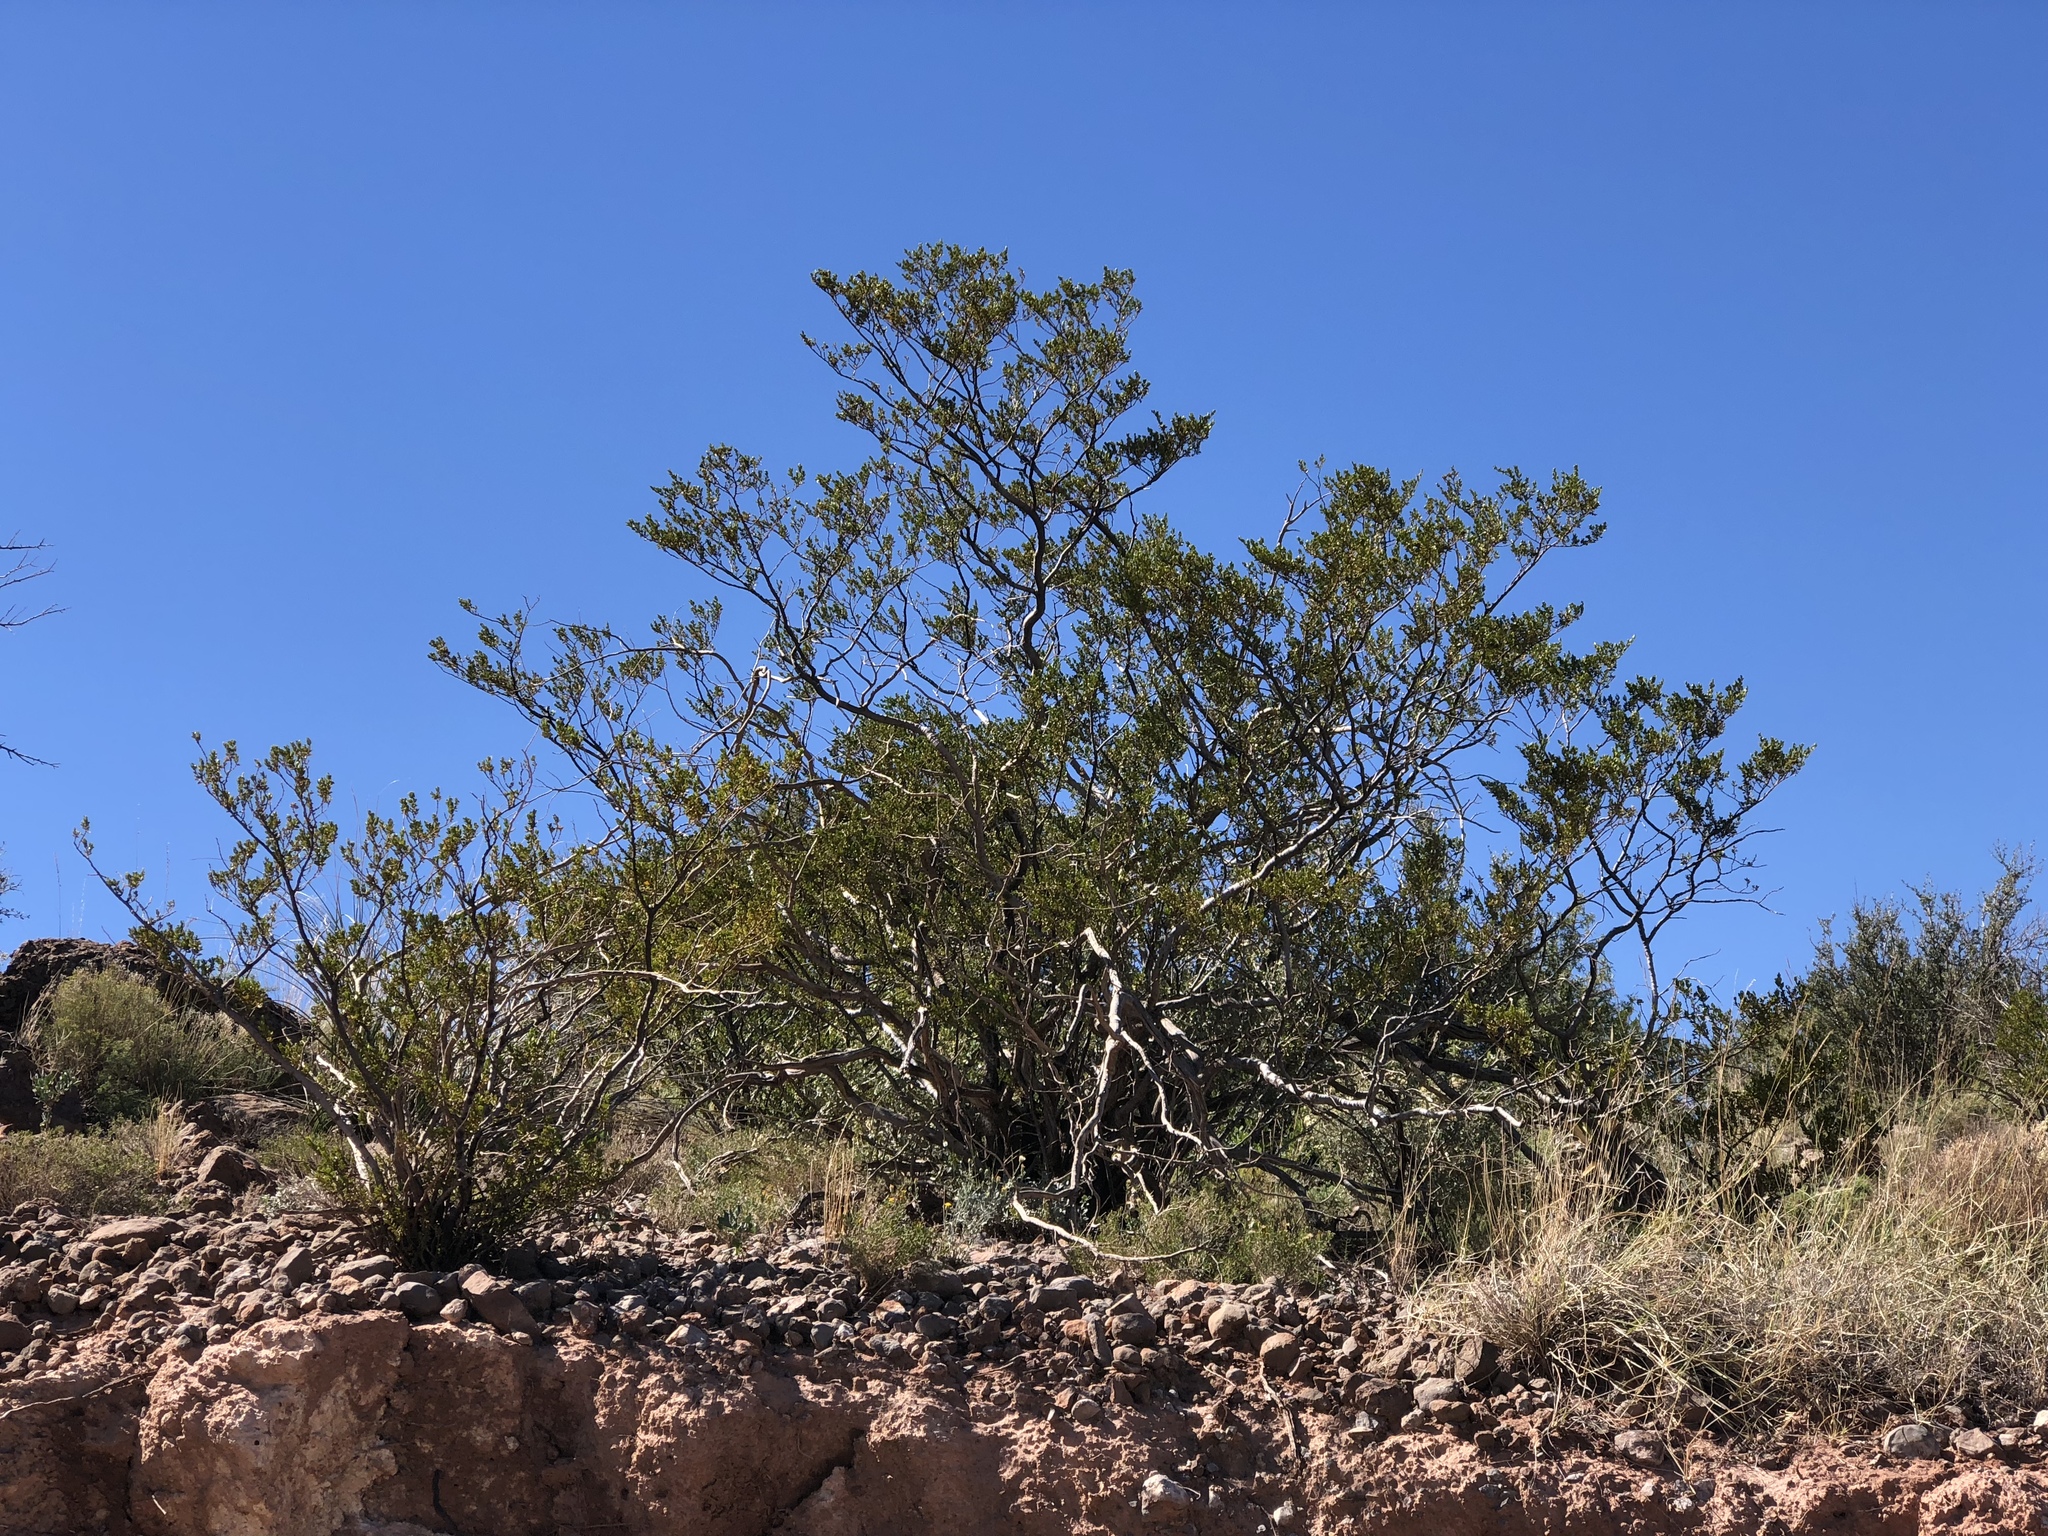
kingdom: Plantae
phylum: Tracheophyta
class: Magnoliopsida
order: Zygophyllales
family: Zygophyllaceae
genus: Larrea
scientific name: Larrea tridentata
